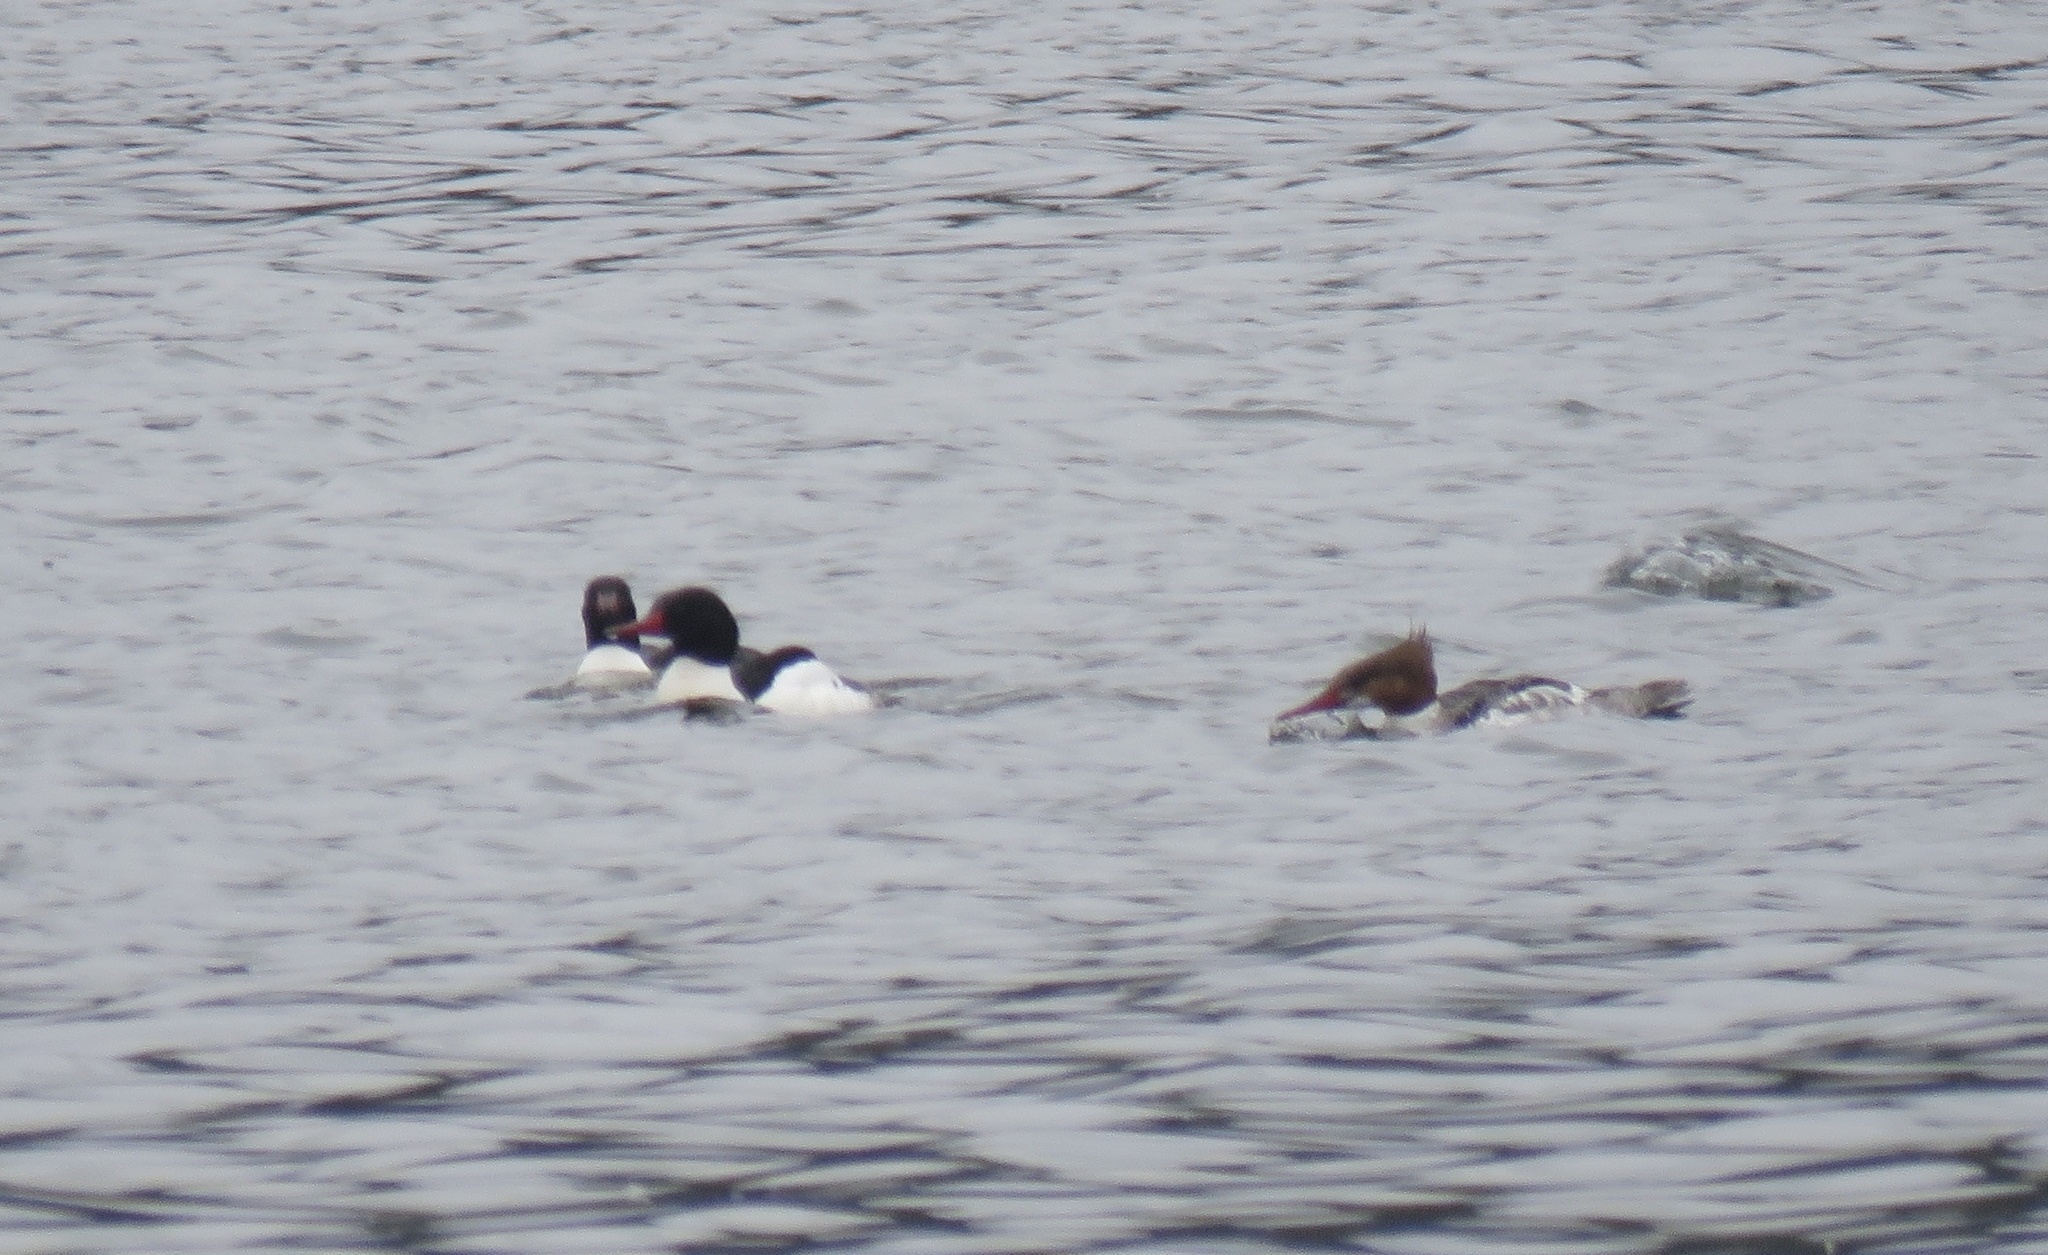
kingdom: Animalia
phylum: Chordata
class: Aves
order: Anseriformes
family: Anatidae
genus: Mergus
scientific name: Mergus merganser
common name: Common merganser
